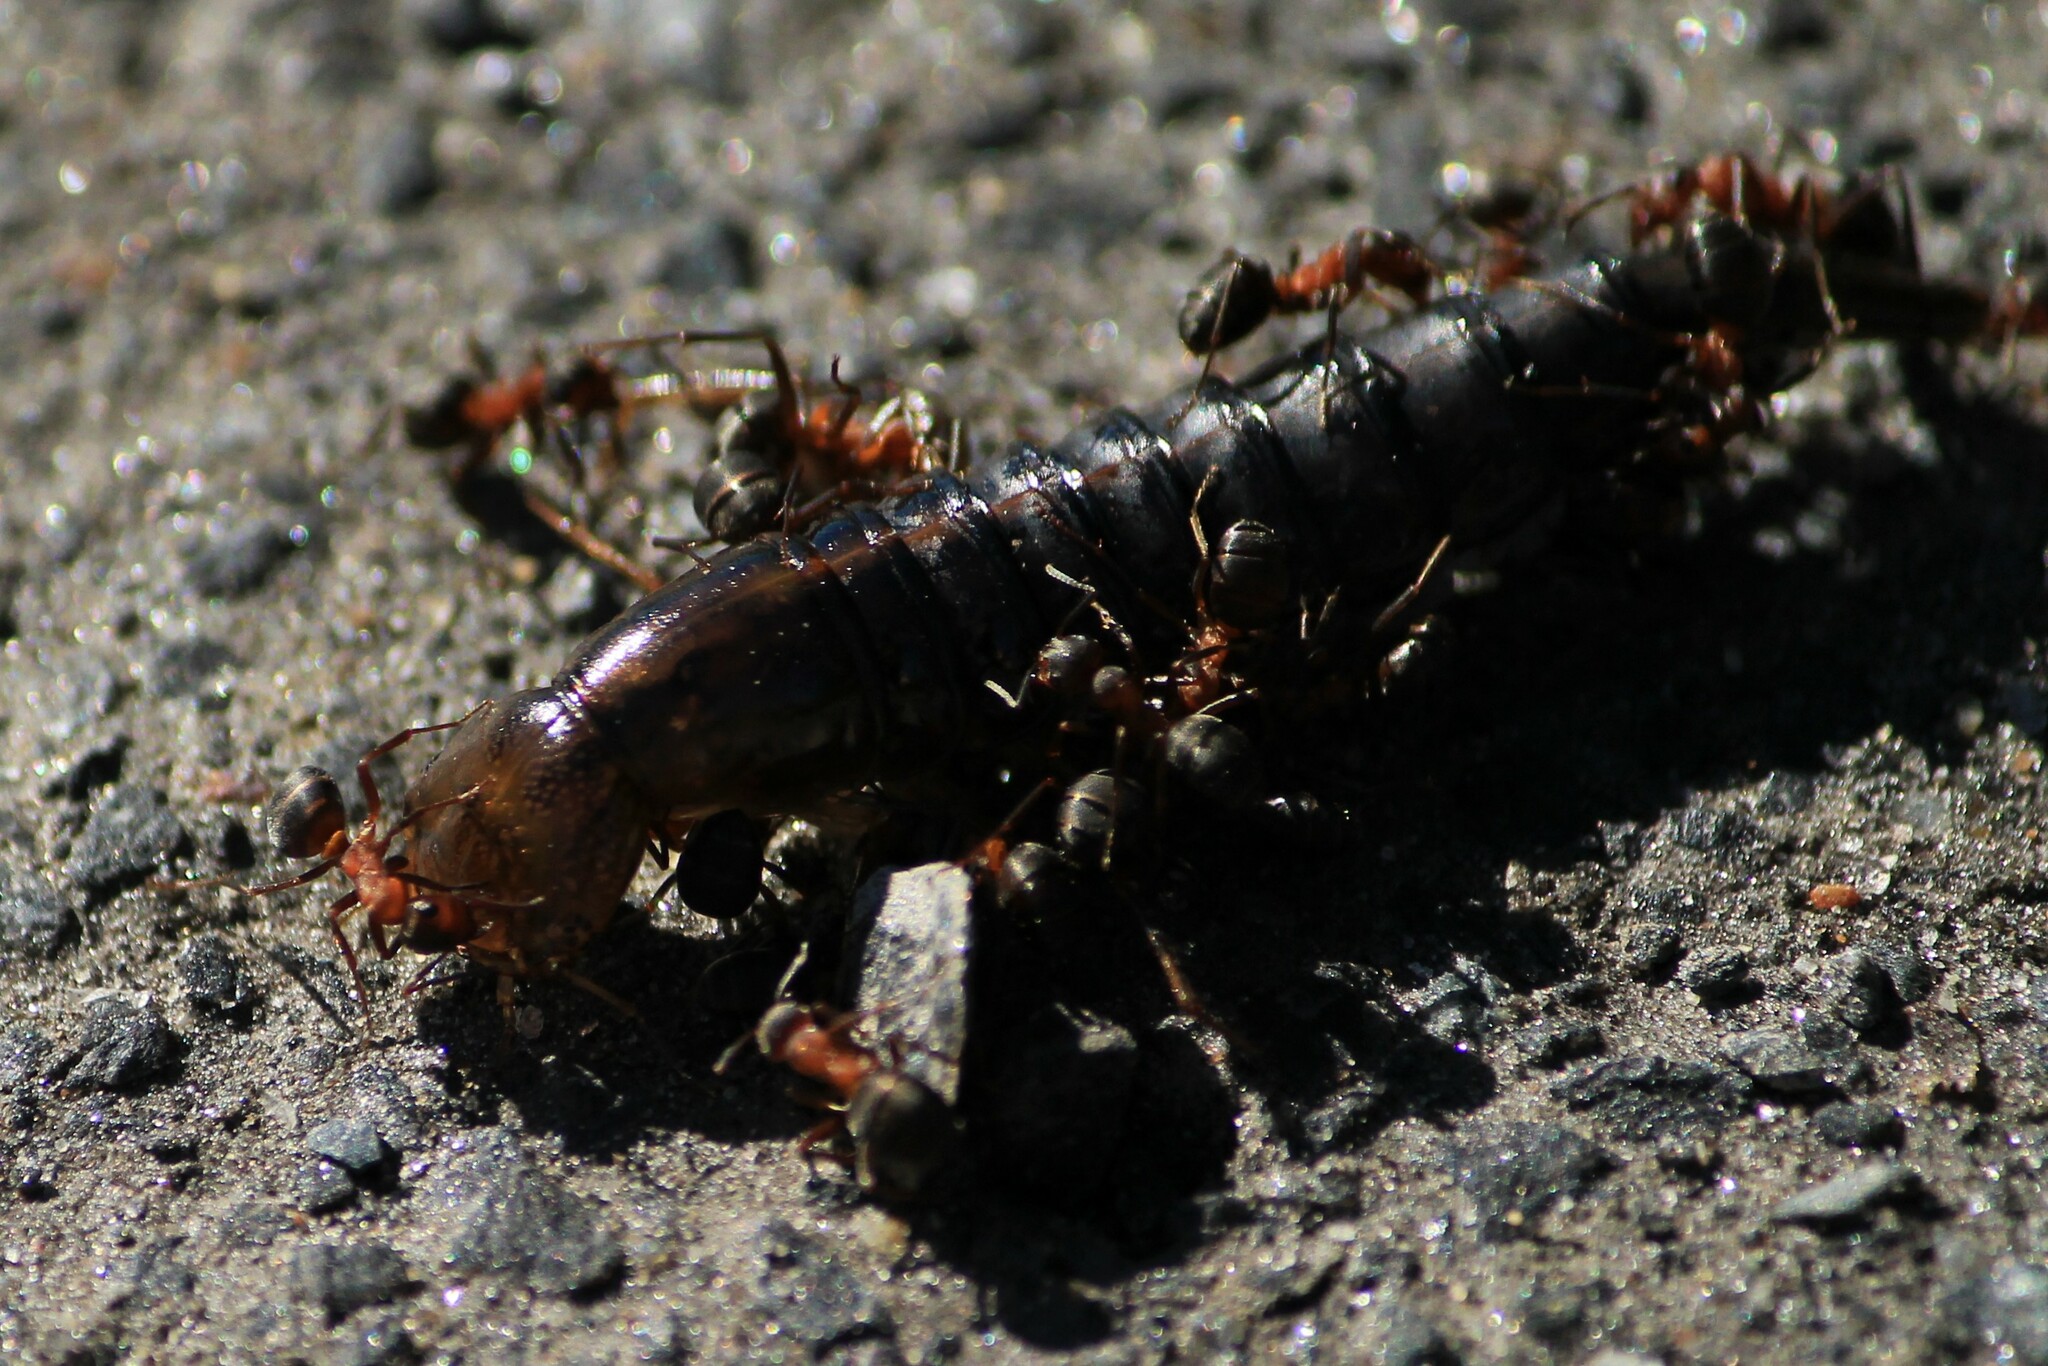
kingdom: Animalia
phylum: Arthropoda
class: Insecta
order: Coleoptera
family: Dytiscidae
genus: Dytiscus
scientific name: Dytiscus
